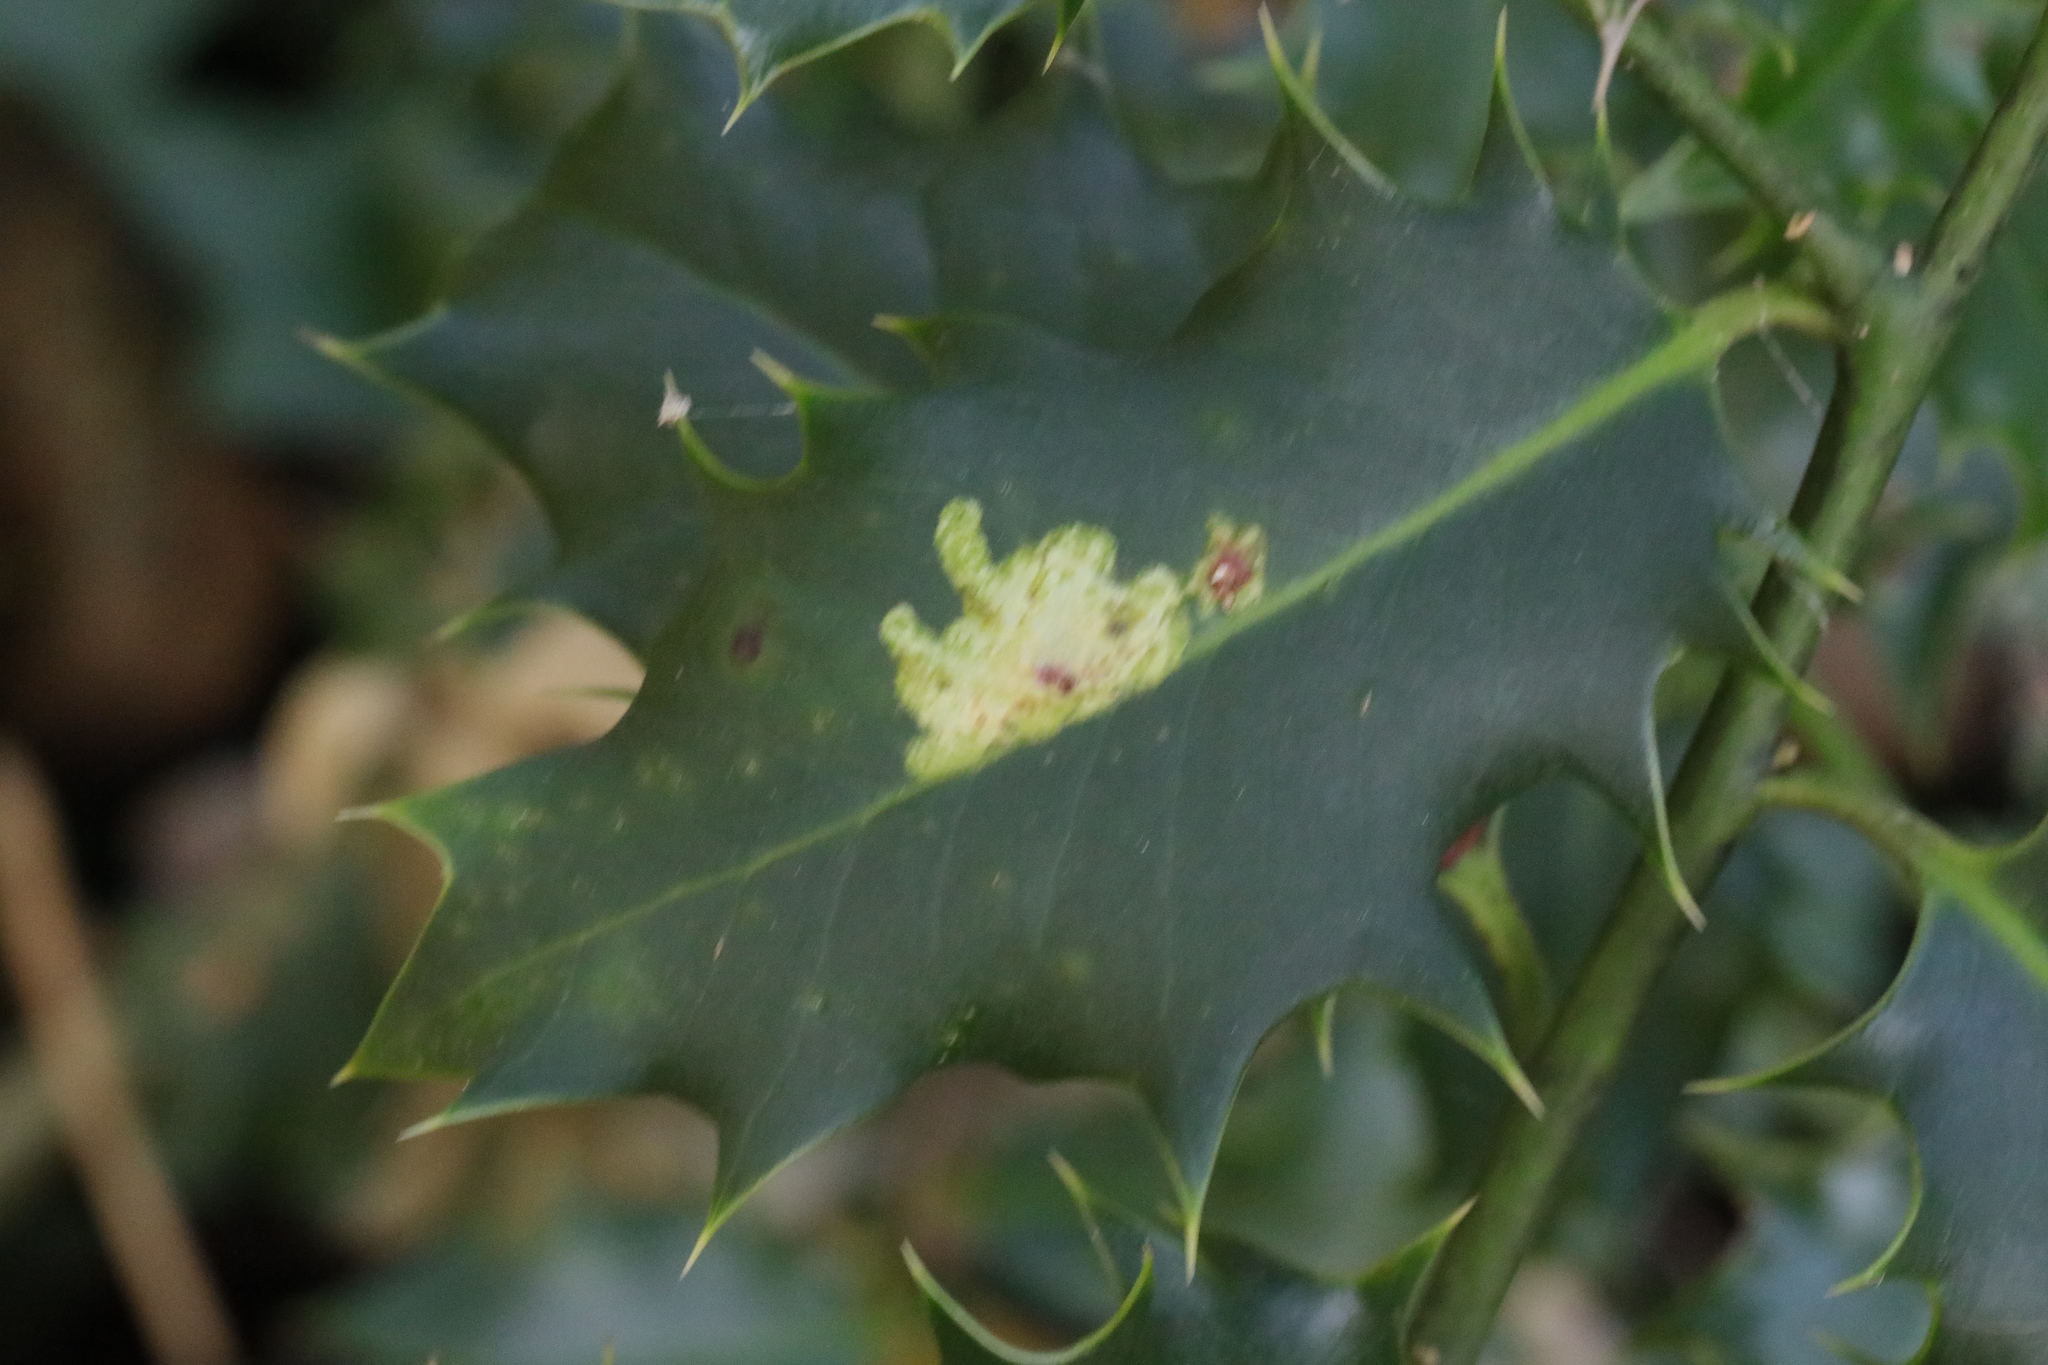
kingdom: Animalia
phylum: Arthropoda
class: Insecta
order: Diptera
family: Agromyzidae
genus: Phytomyza
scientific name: Phytomyza ilicis
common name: Holly leafminer
